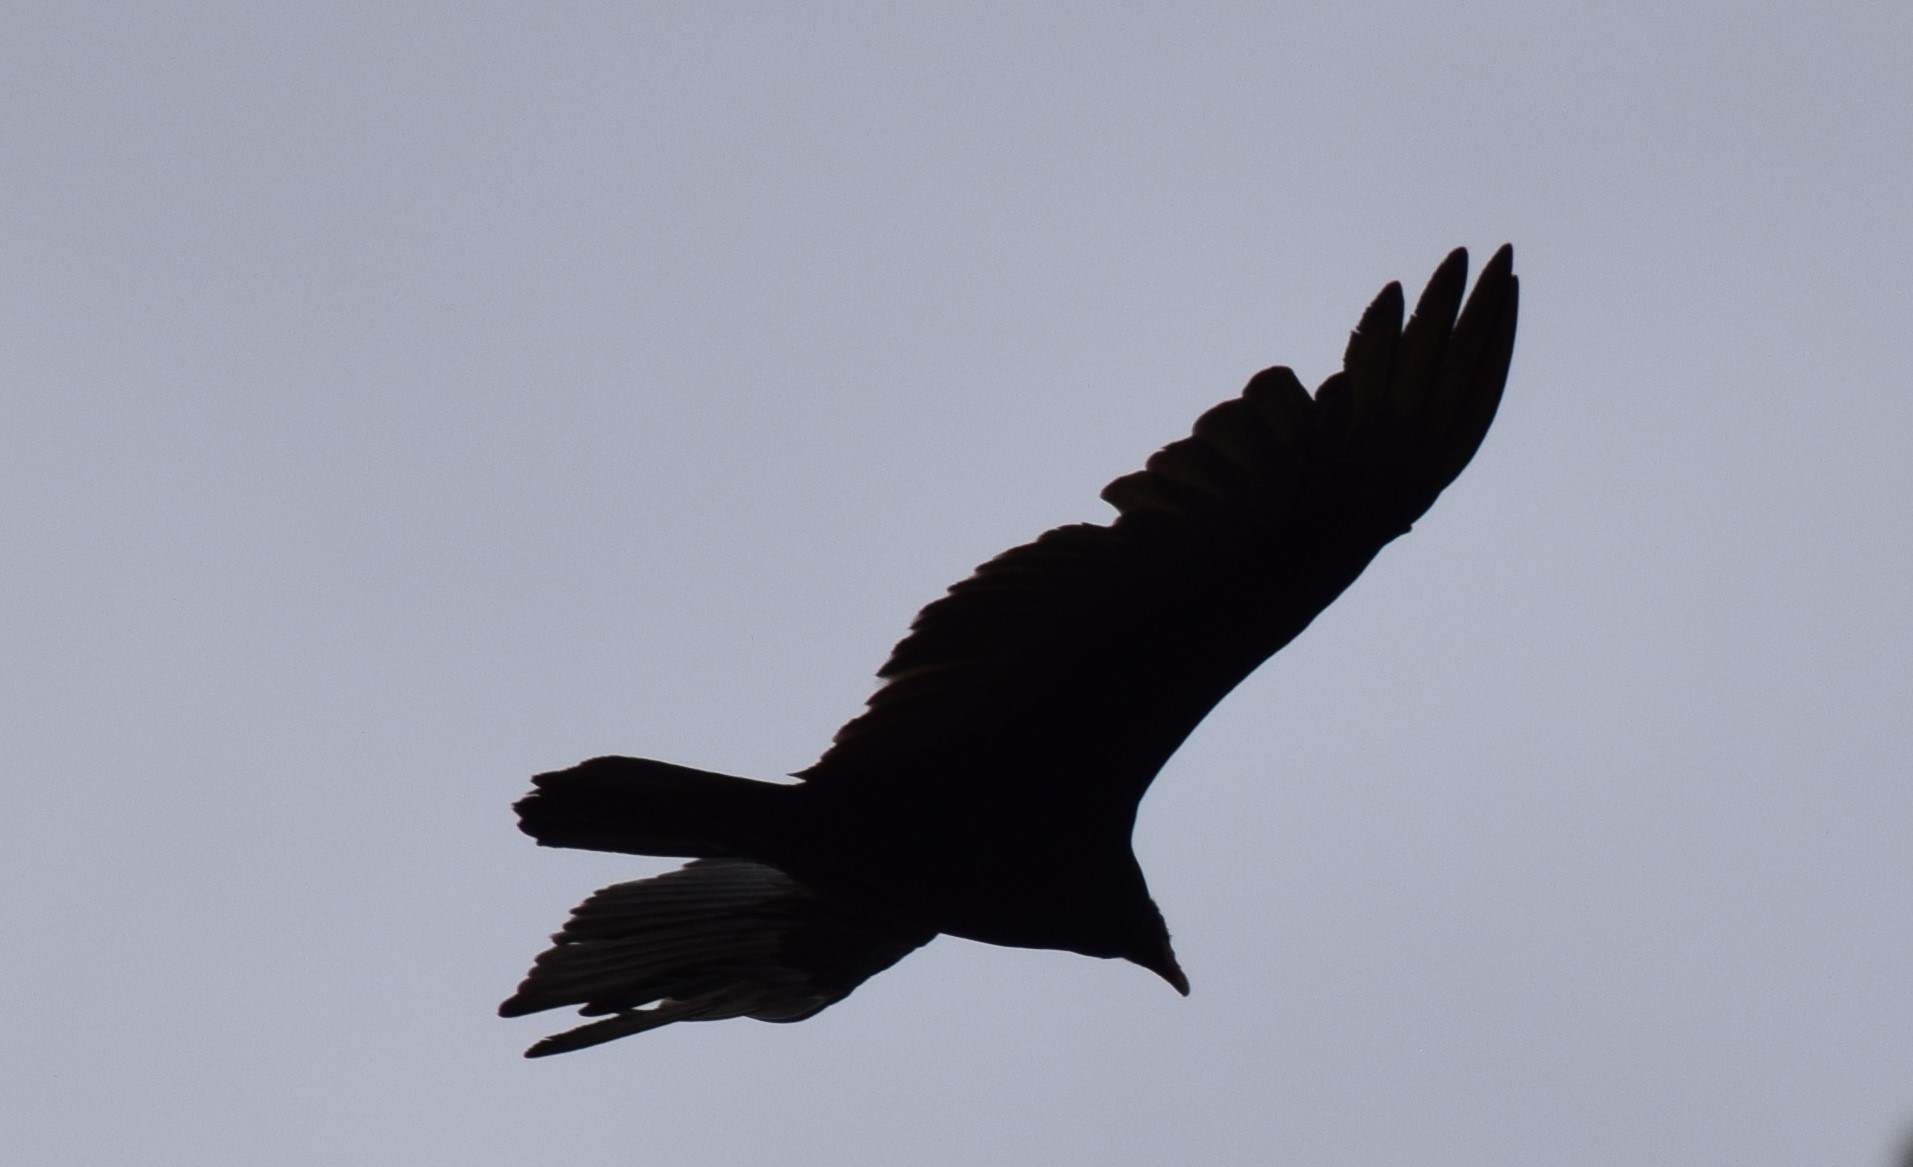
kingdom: Animalia
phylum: Chordata
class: Aves
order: Accipitriformes
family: Cathartidae
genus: Cathartes
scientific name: Cathartes aura
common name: Turkey vulture
